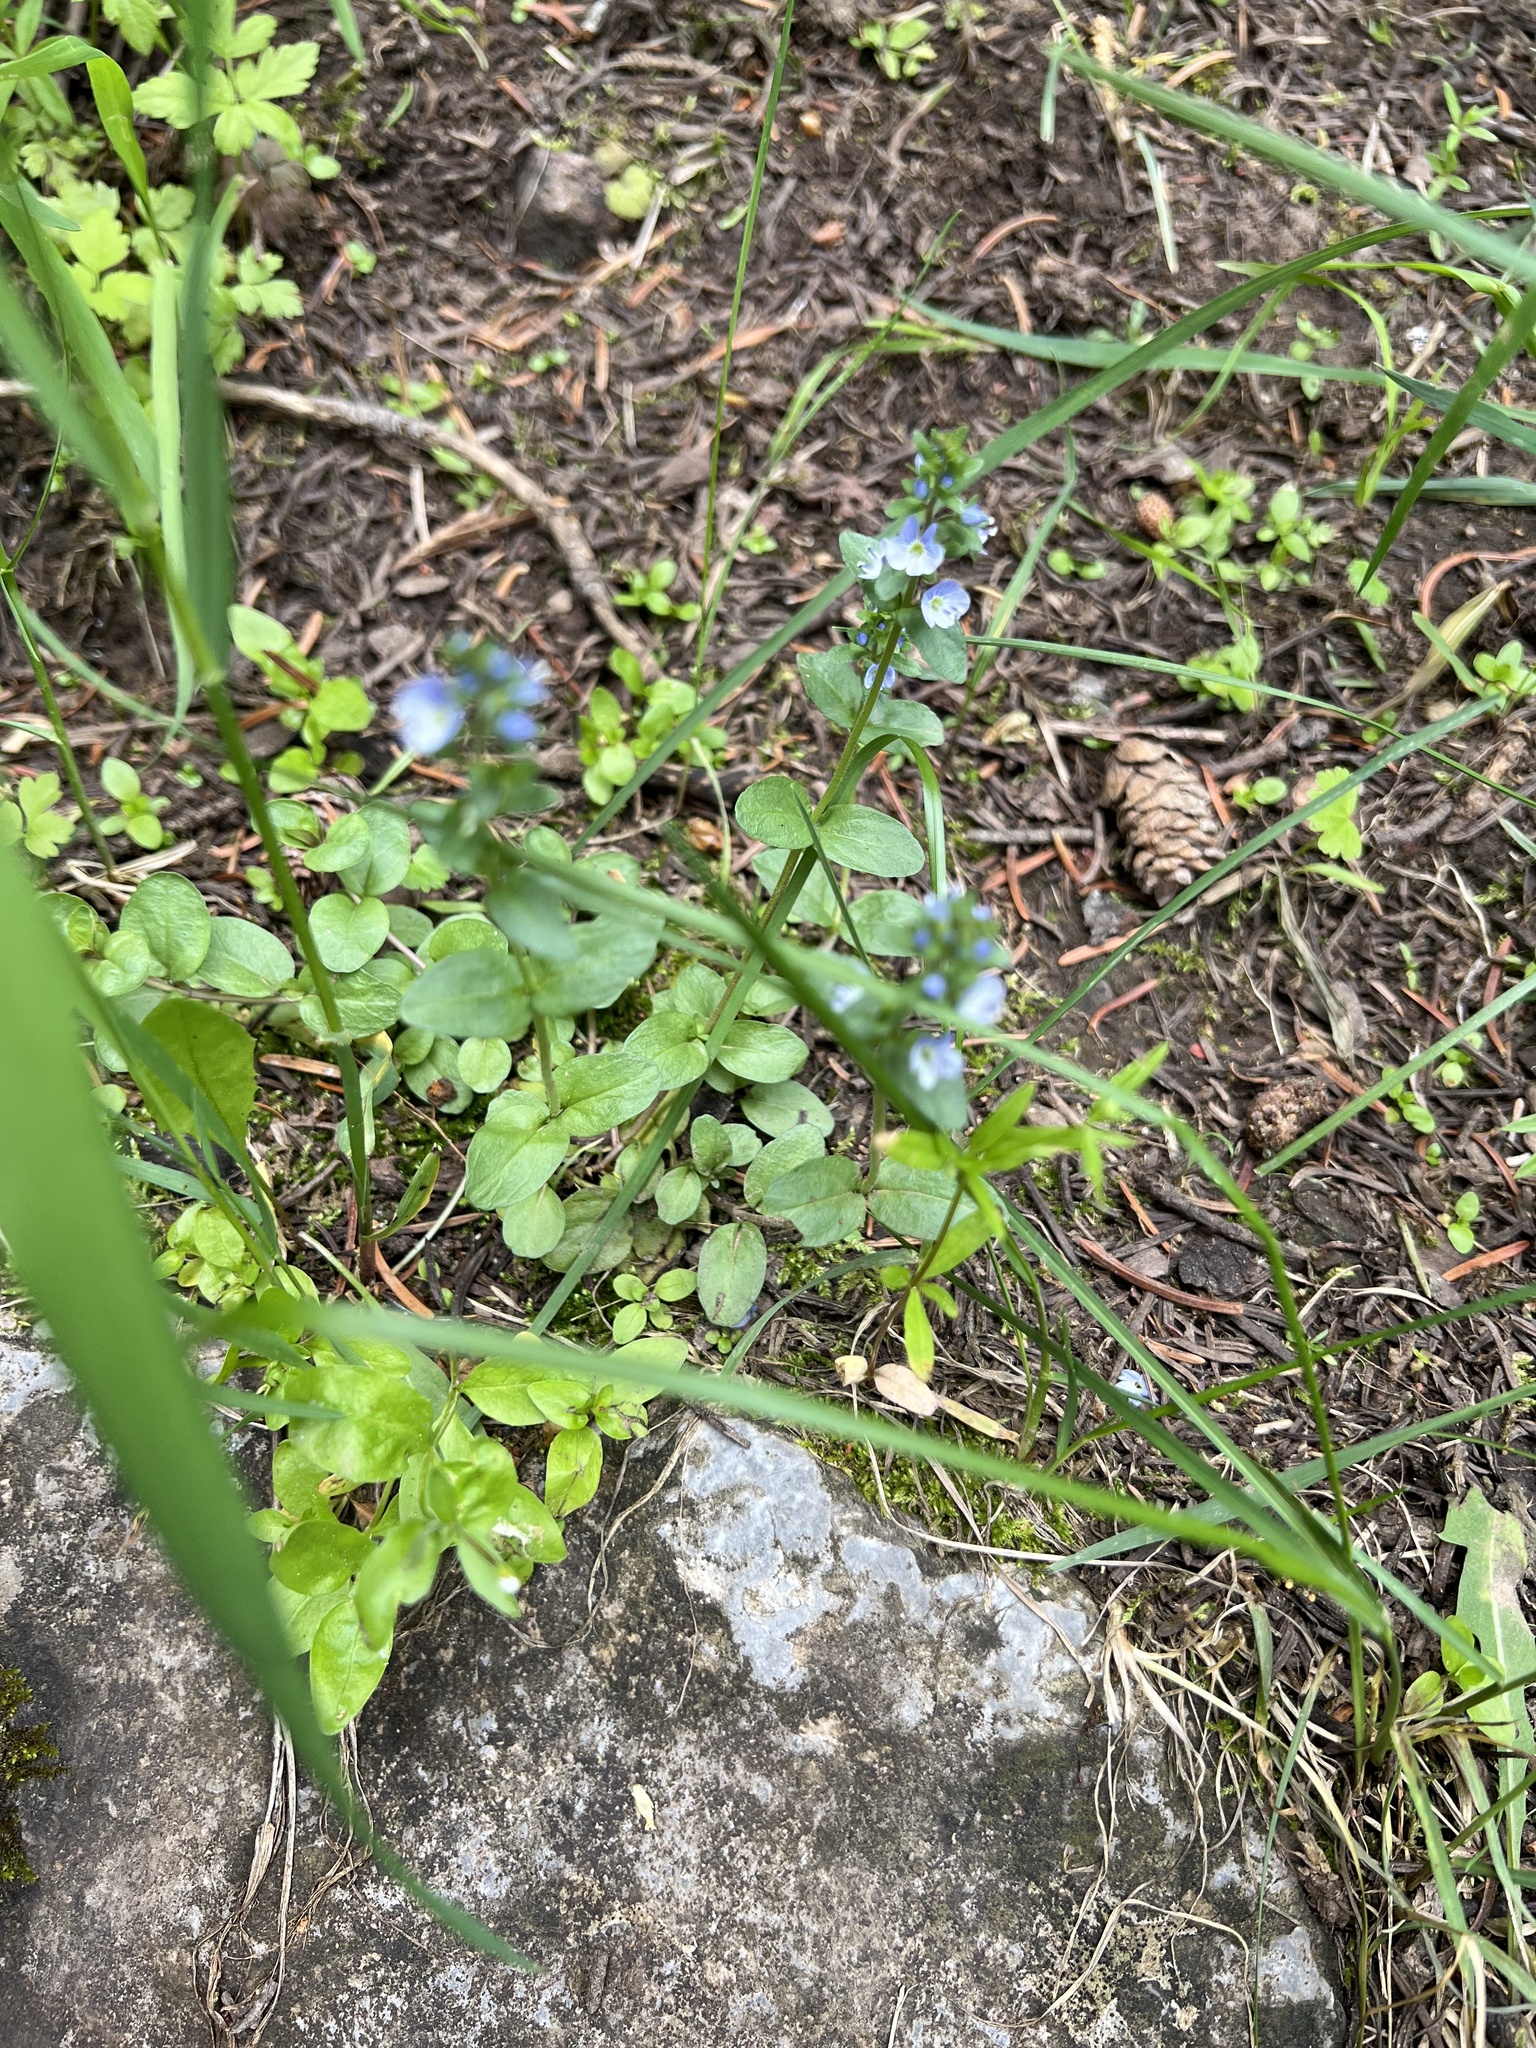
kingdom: Plantae
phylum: Tracheophyta
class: Magnoliopsida
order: Lamiales
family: Plantaginaceae
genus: Veronica
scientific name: Veronica serpyllifolia
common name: Thyme-leaved speedwell
